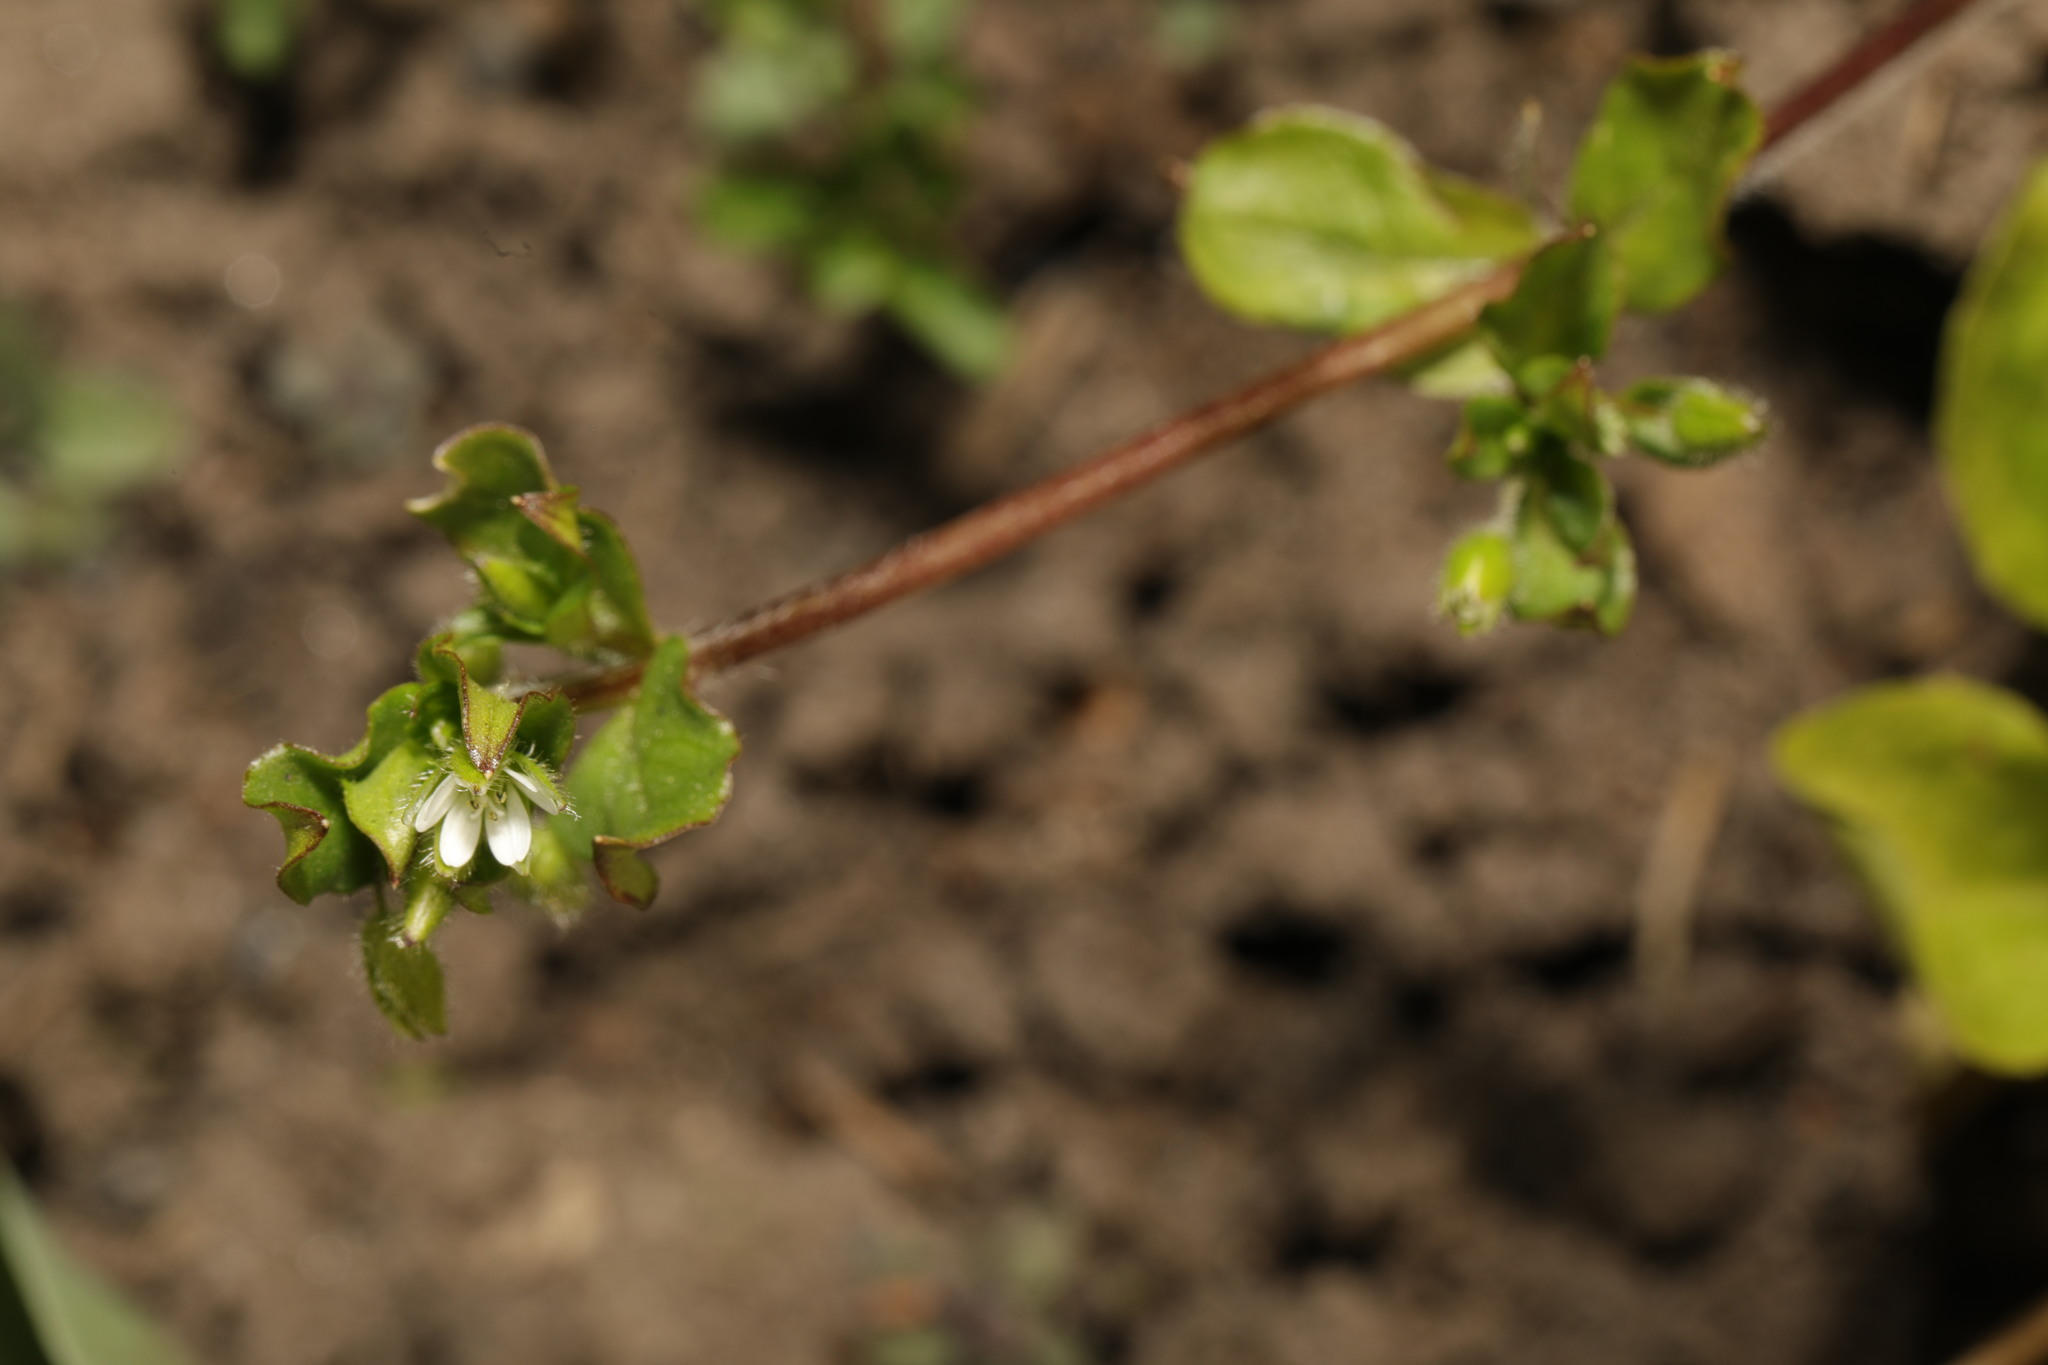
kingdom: Plantae
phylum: Tracheophyta
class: Magnoliopsida
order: Caryophyllales
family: Caryophyllaceae
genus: Stellaria
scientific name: Stellaria media
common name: Common chickweed
